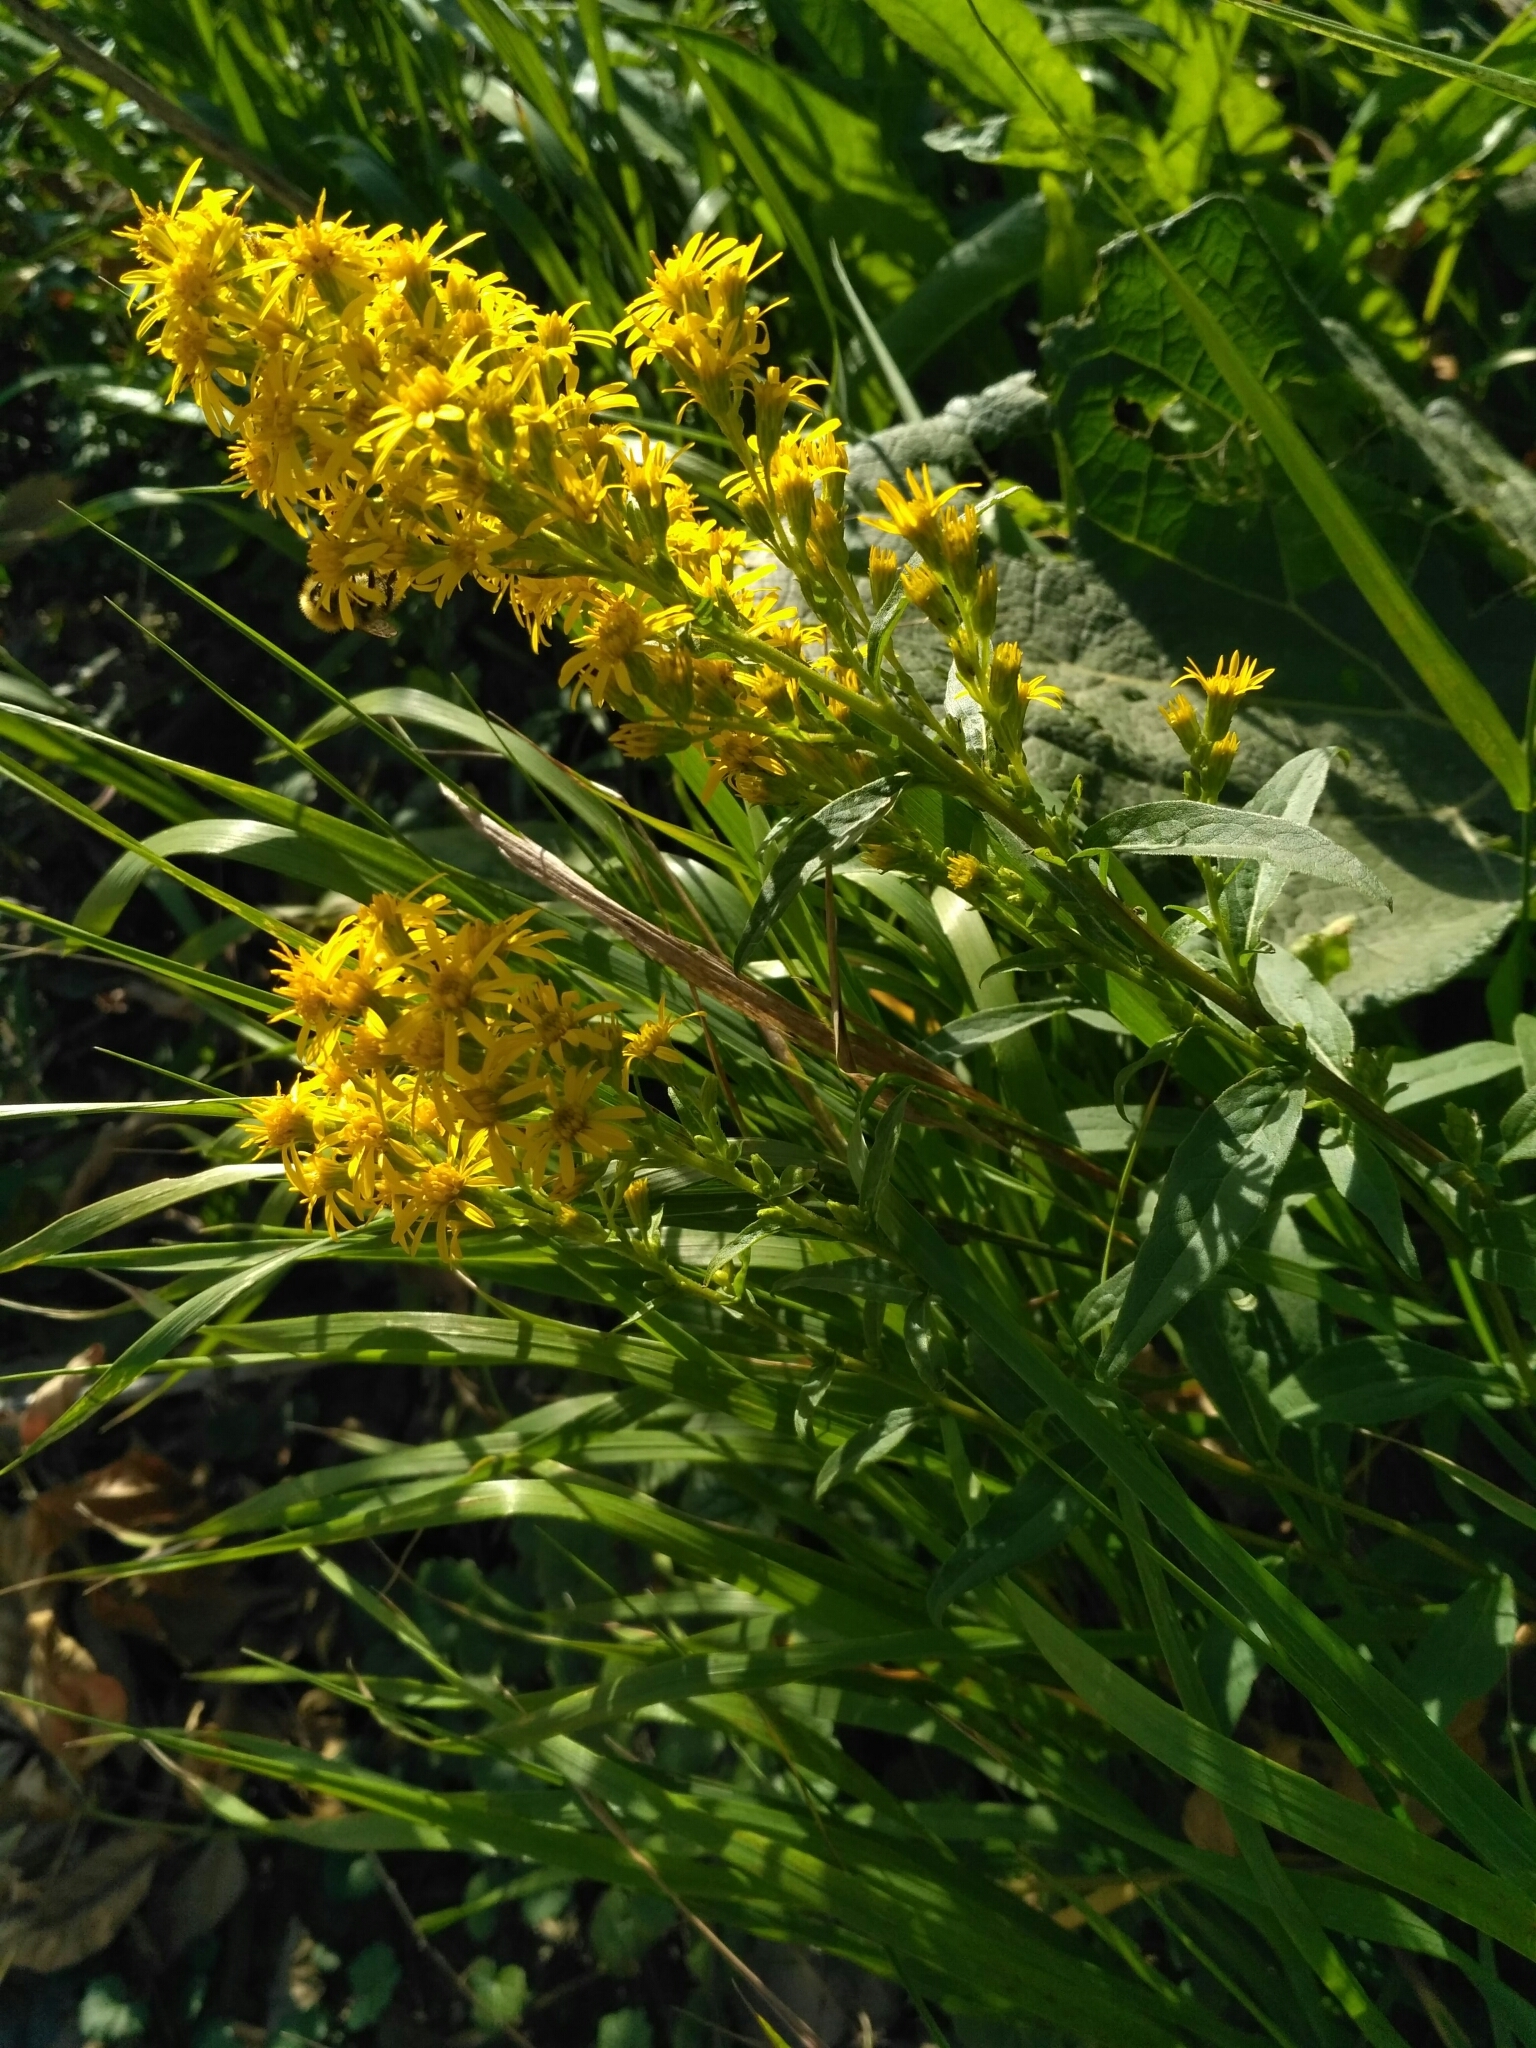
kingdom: Plantae
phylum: Tracheophyta
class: Magnoliopsida
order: Asterales
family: Asteraceae
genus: Solidago
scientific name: Solidago virgaurea
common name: Goldenrod
